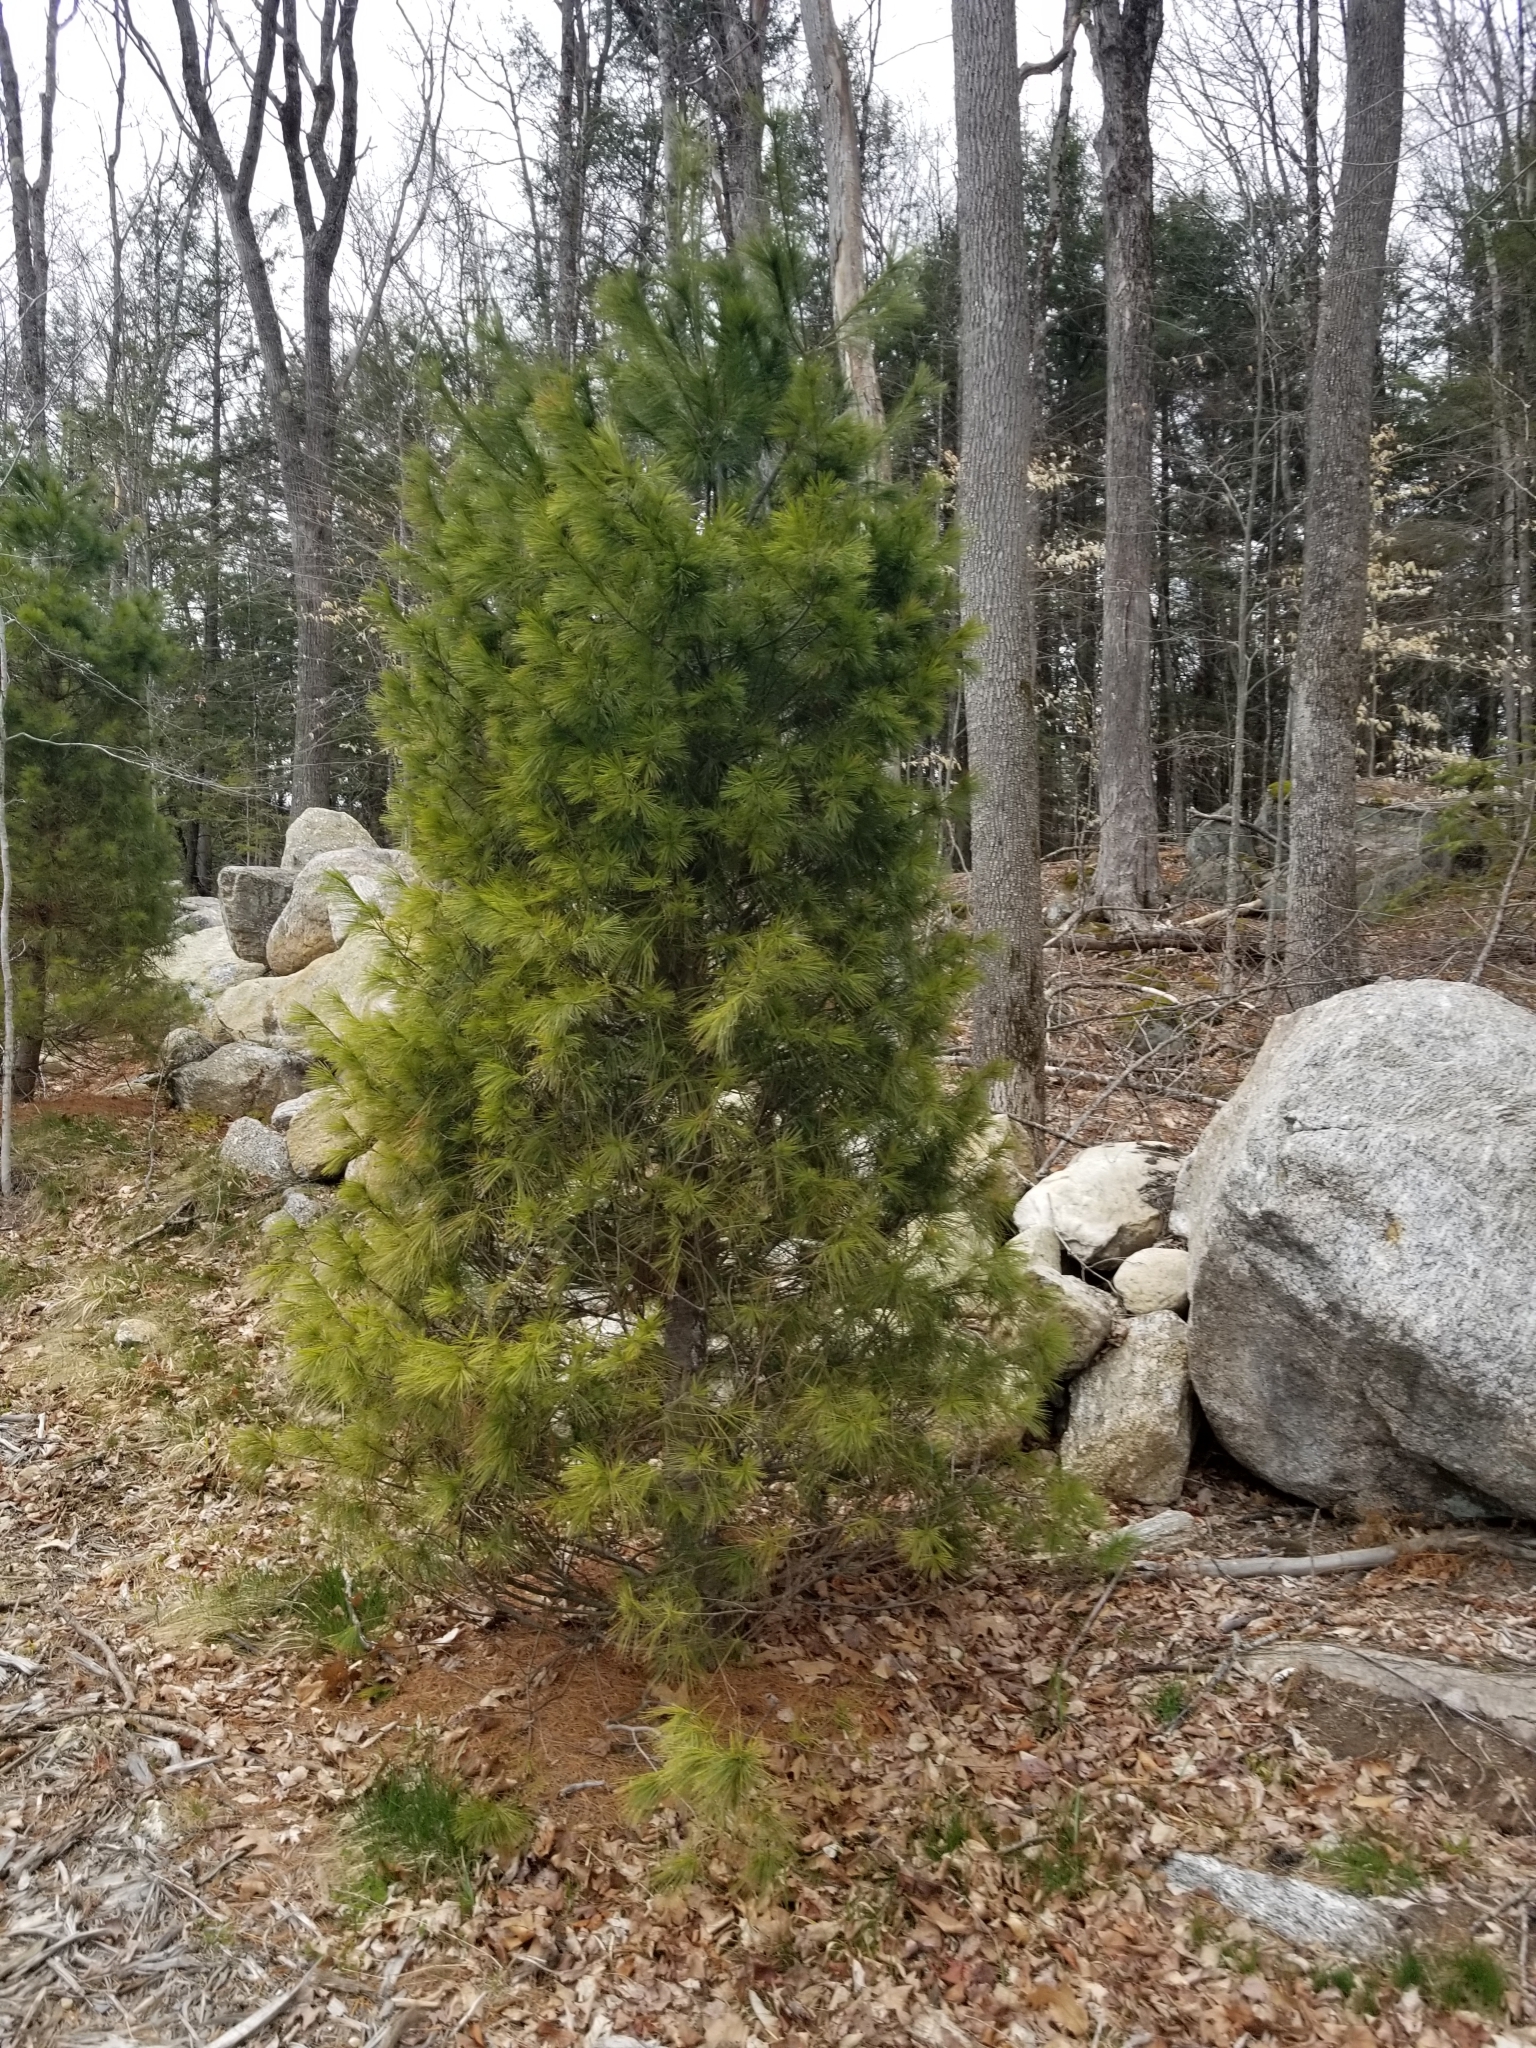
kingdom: Plantae
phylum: Tracheophyta
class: Pinopsida
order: Pinales
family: Pinaceae
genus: Pinus
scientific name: Pinus strobus
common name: Weymouth pine
